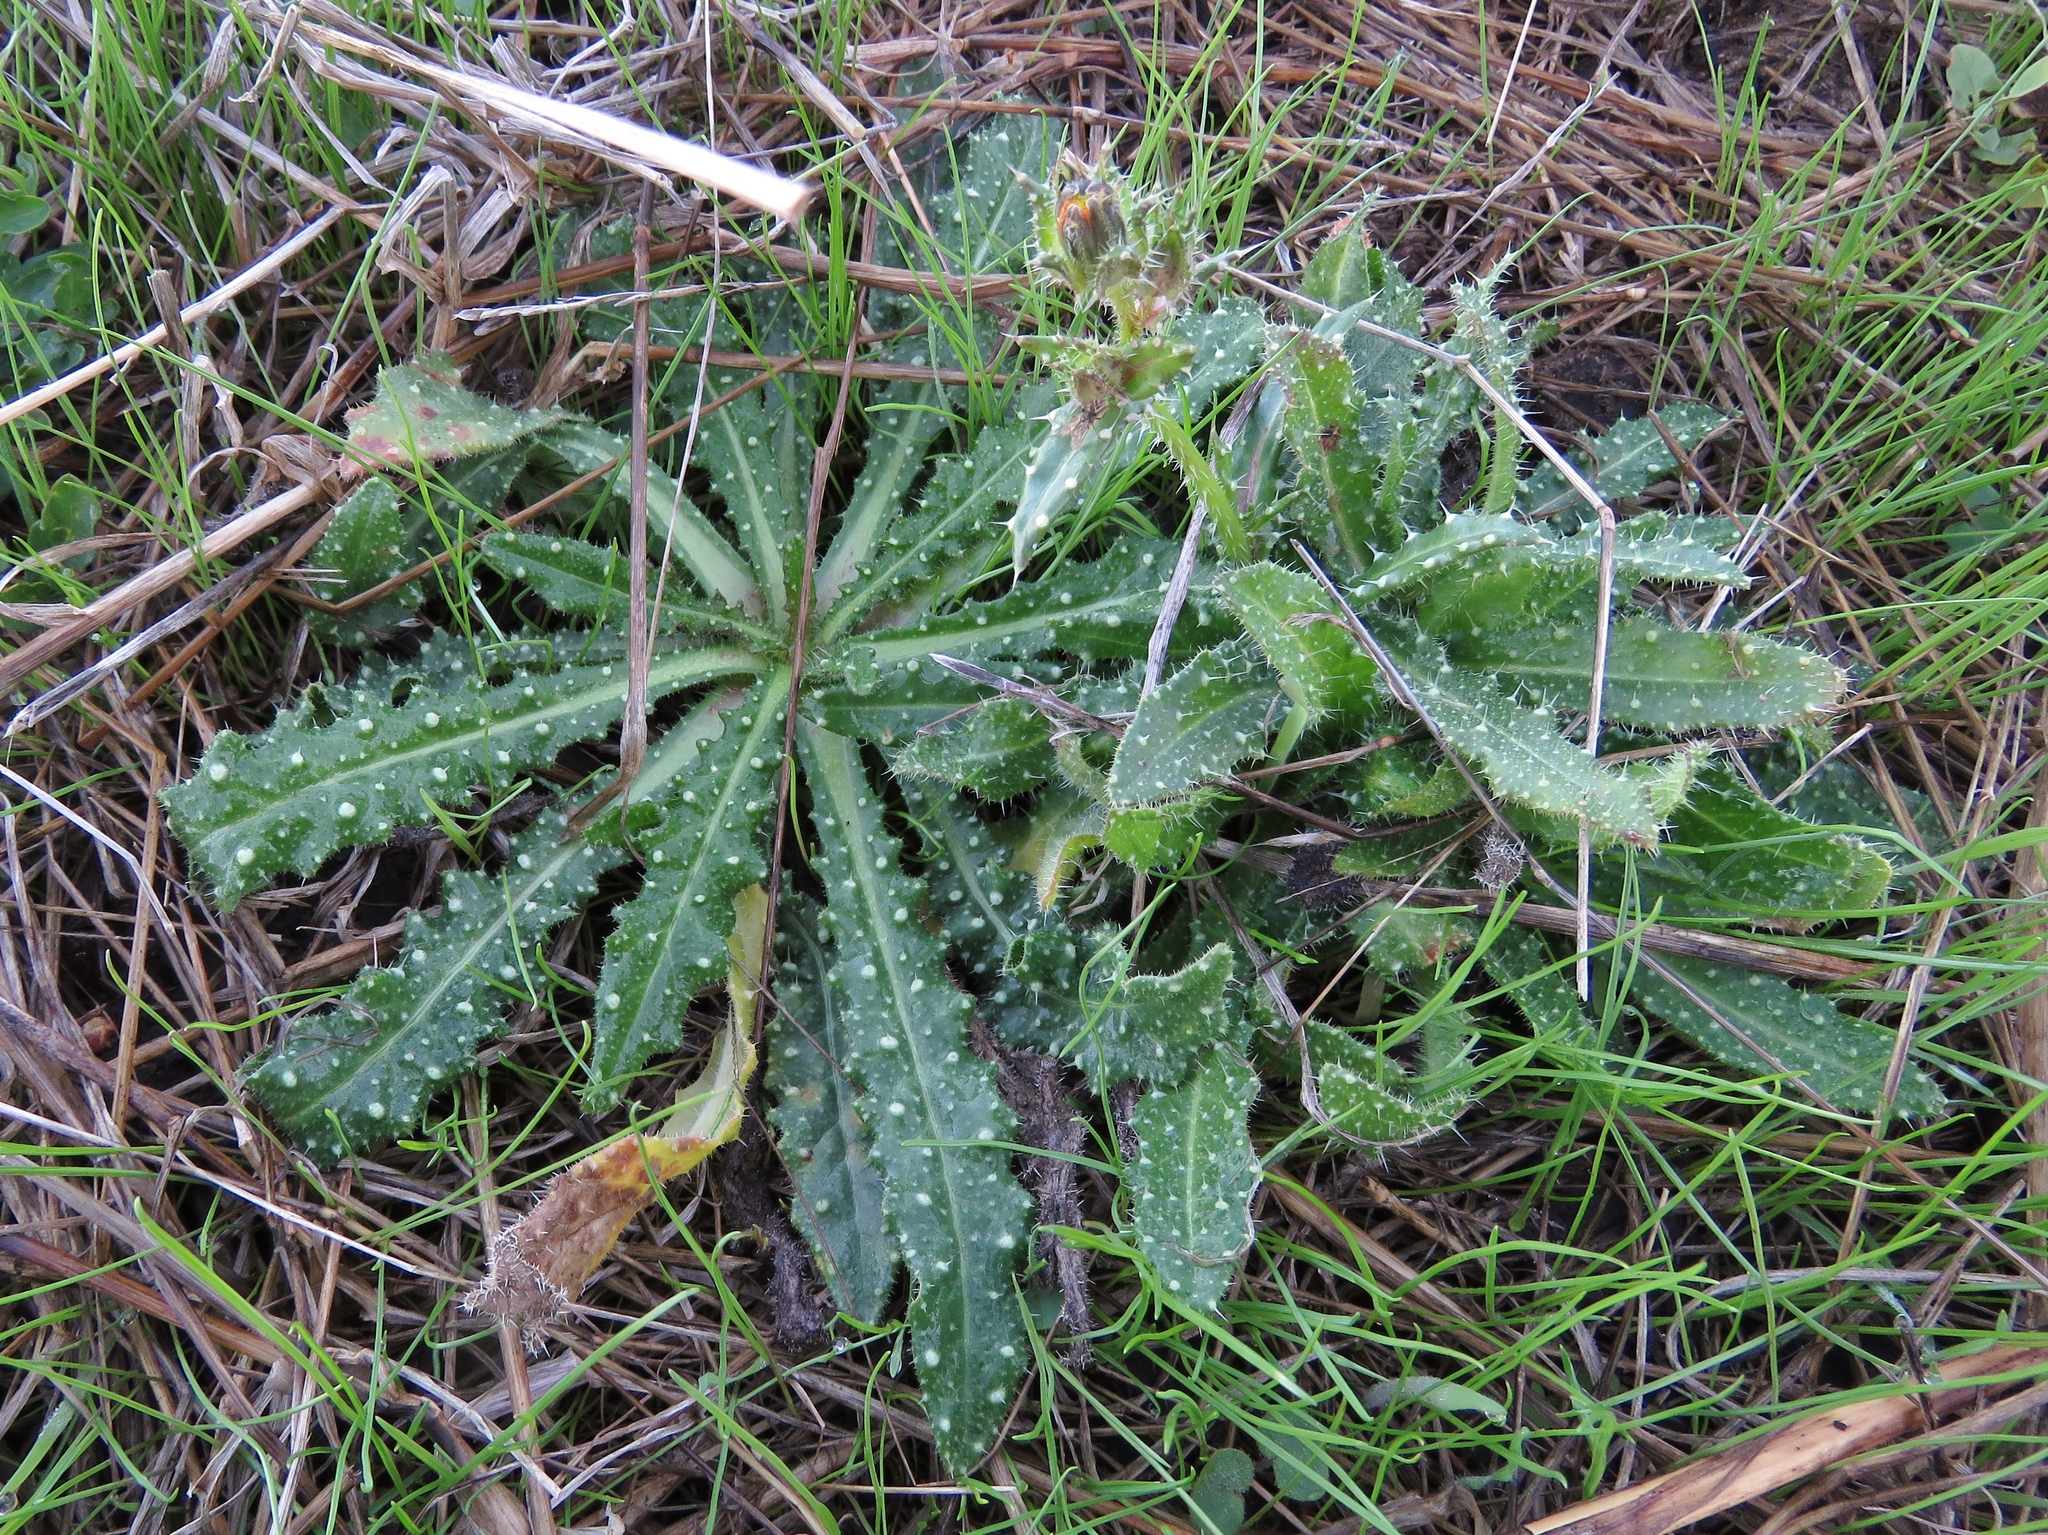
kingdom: Plantae
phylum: Tracheophyta
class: Magnoliopsida
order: Asterales
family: Asteraceae
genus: Helminthotheca
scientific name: Helminthotheca echioides
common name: Ox-tongue
